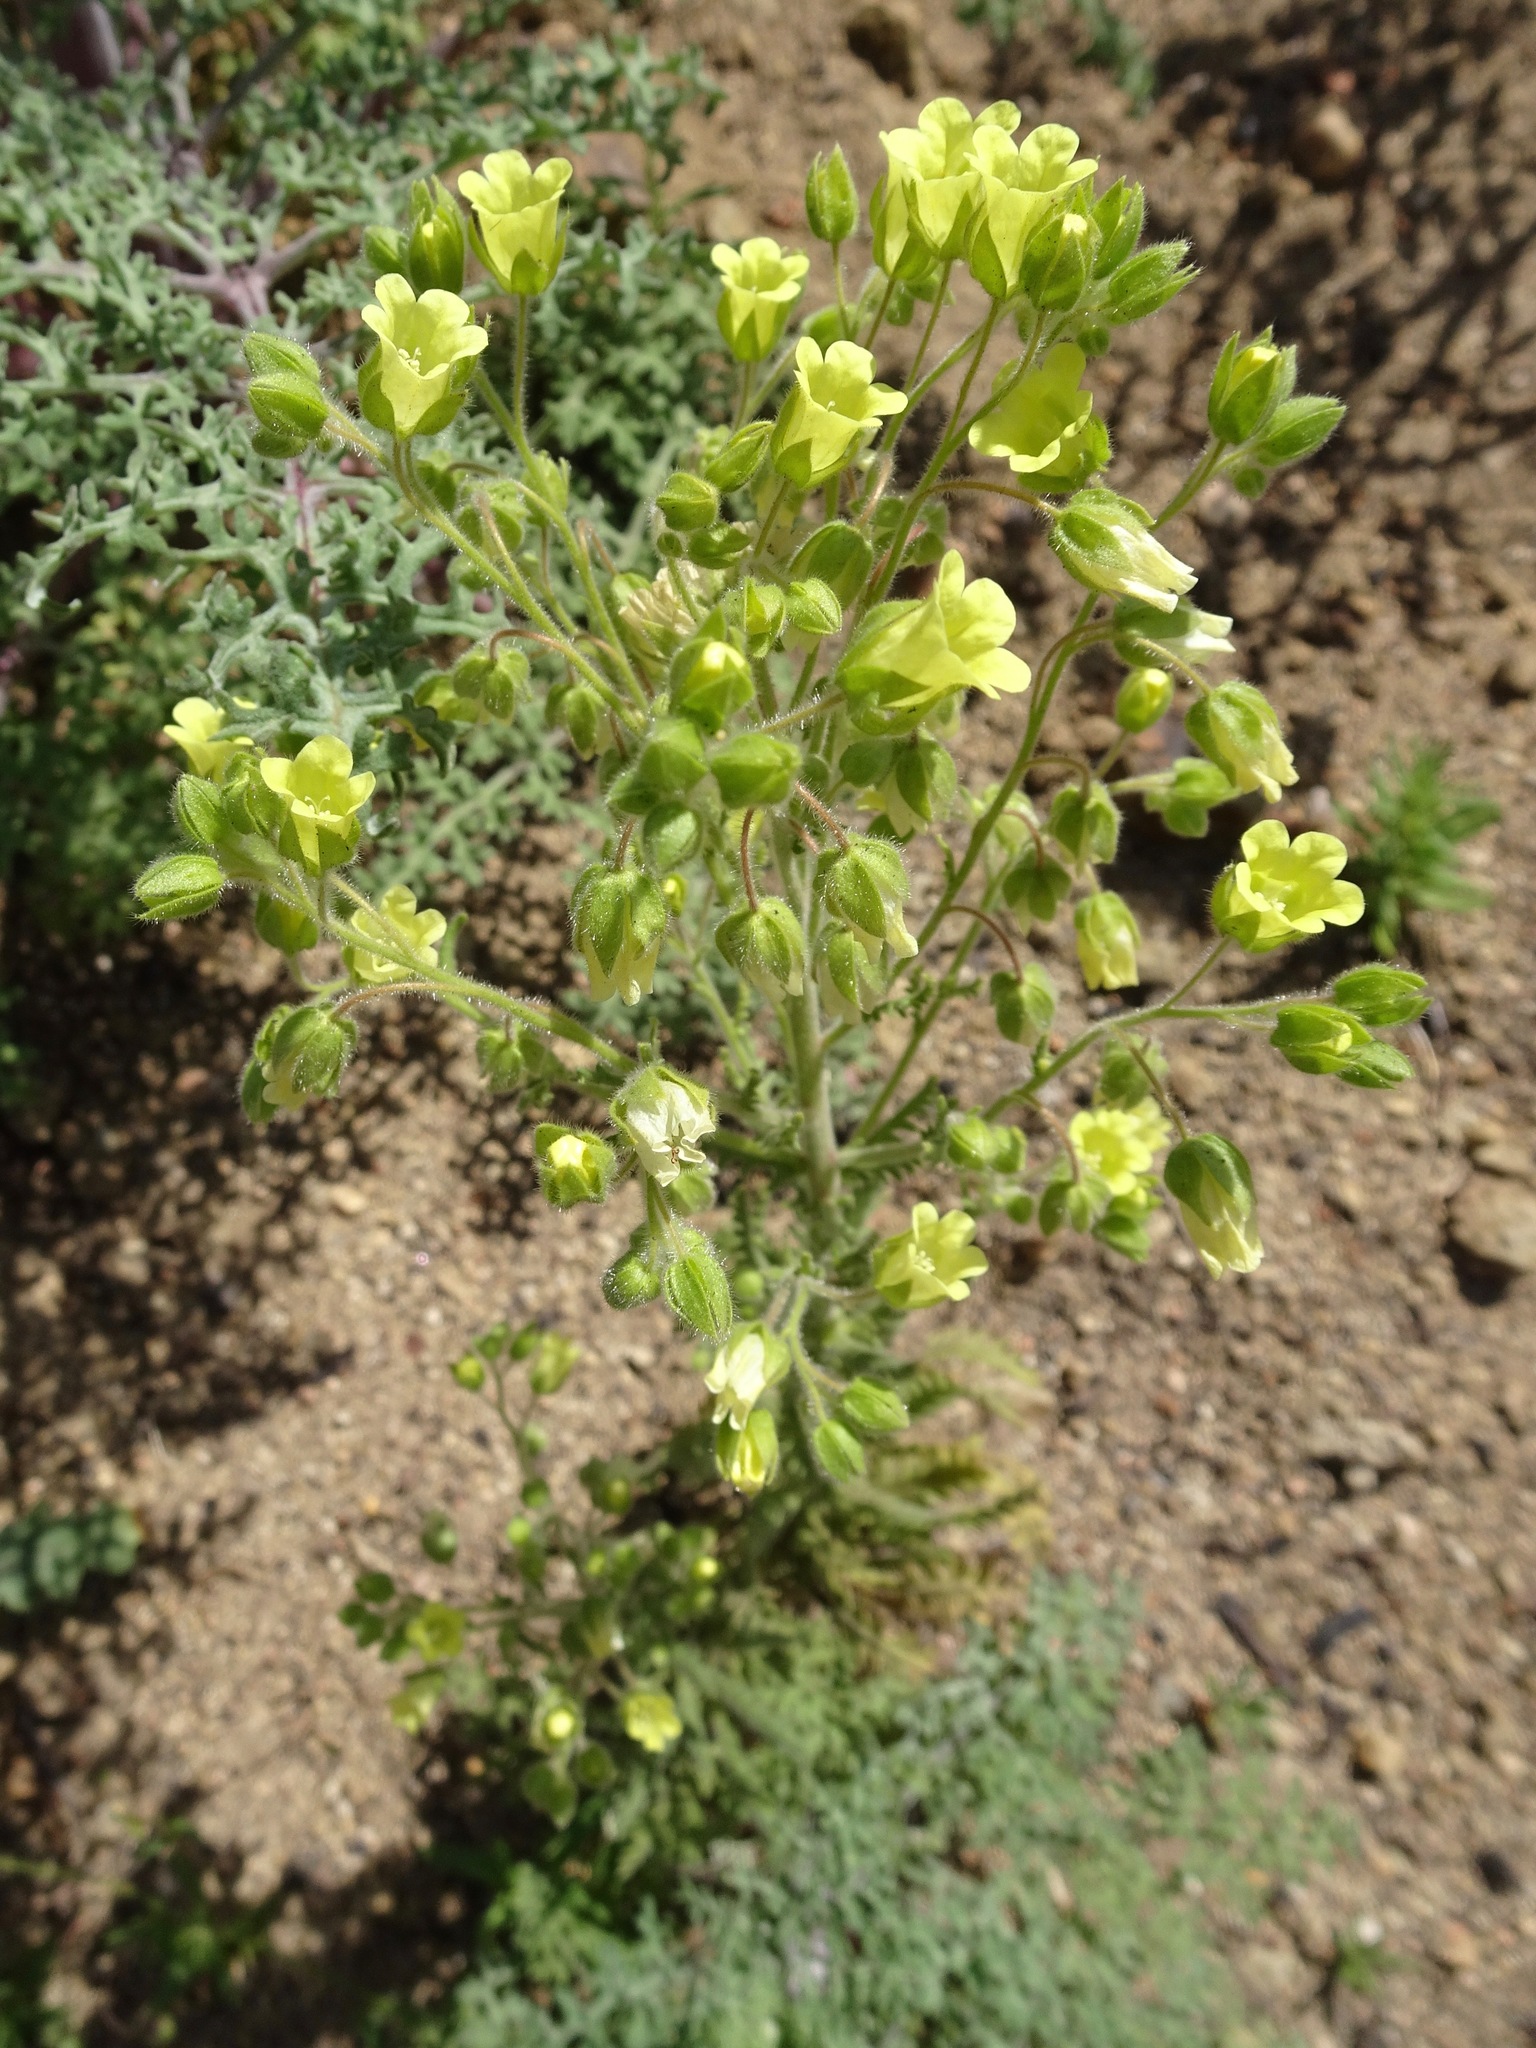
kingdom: Plantae
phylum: Tracheophyta
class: Magnoliopsida
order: Boraginales
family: Hydrophyllaceae
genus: Emmenanthe
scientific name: Emmenanthe penduliflora
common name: Whispering-bells
